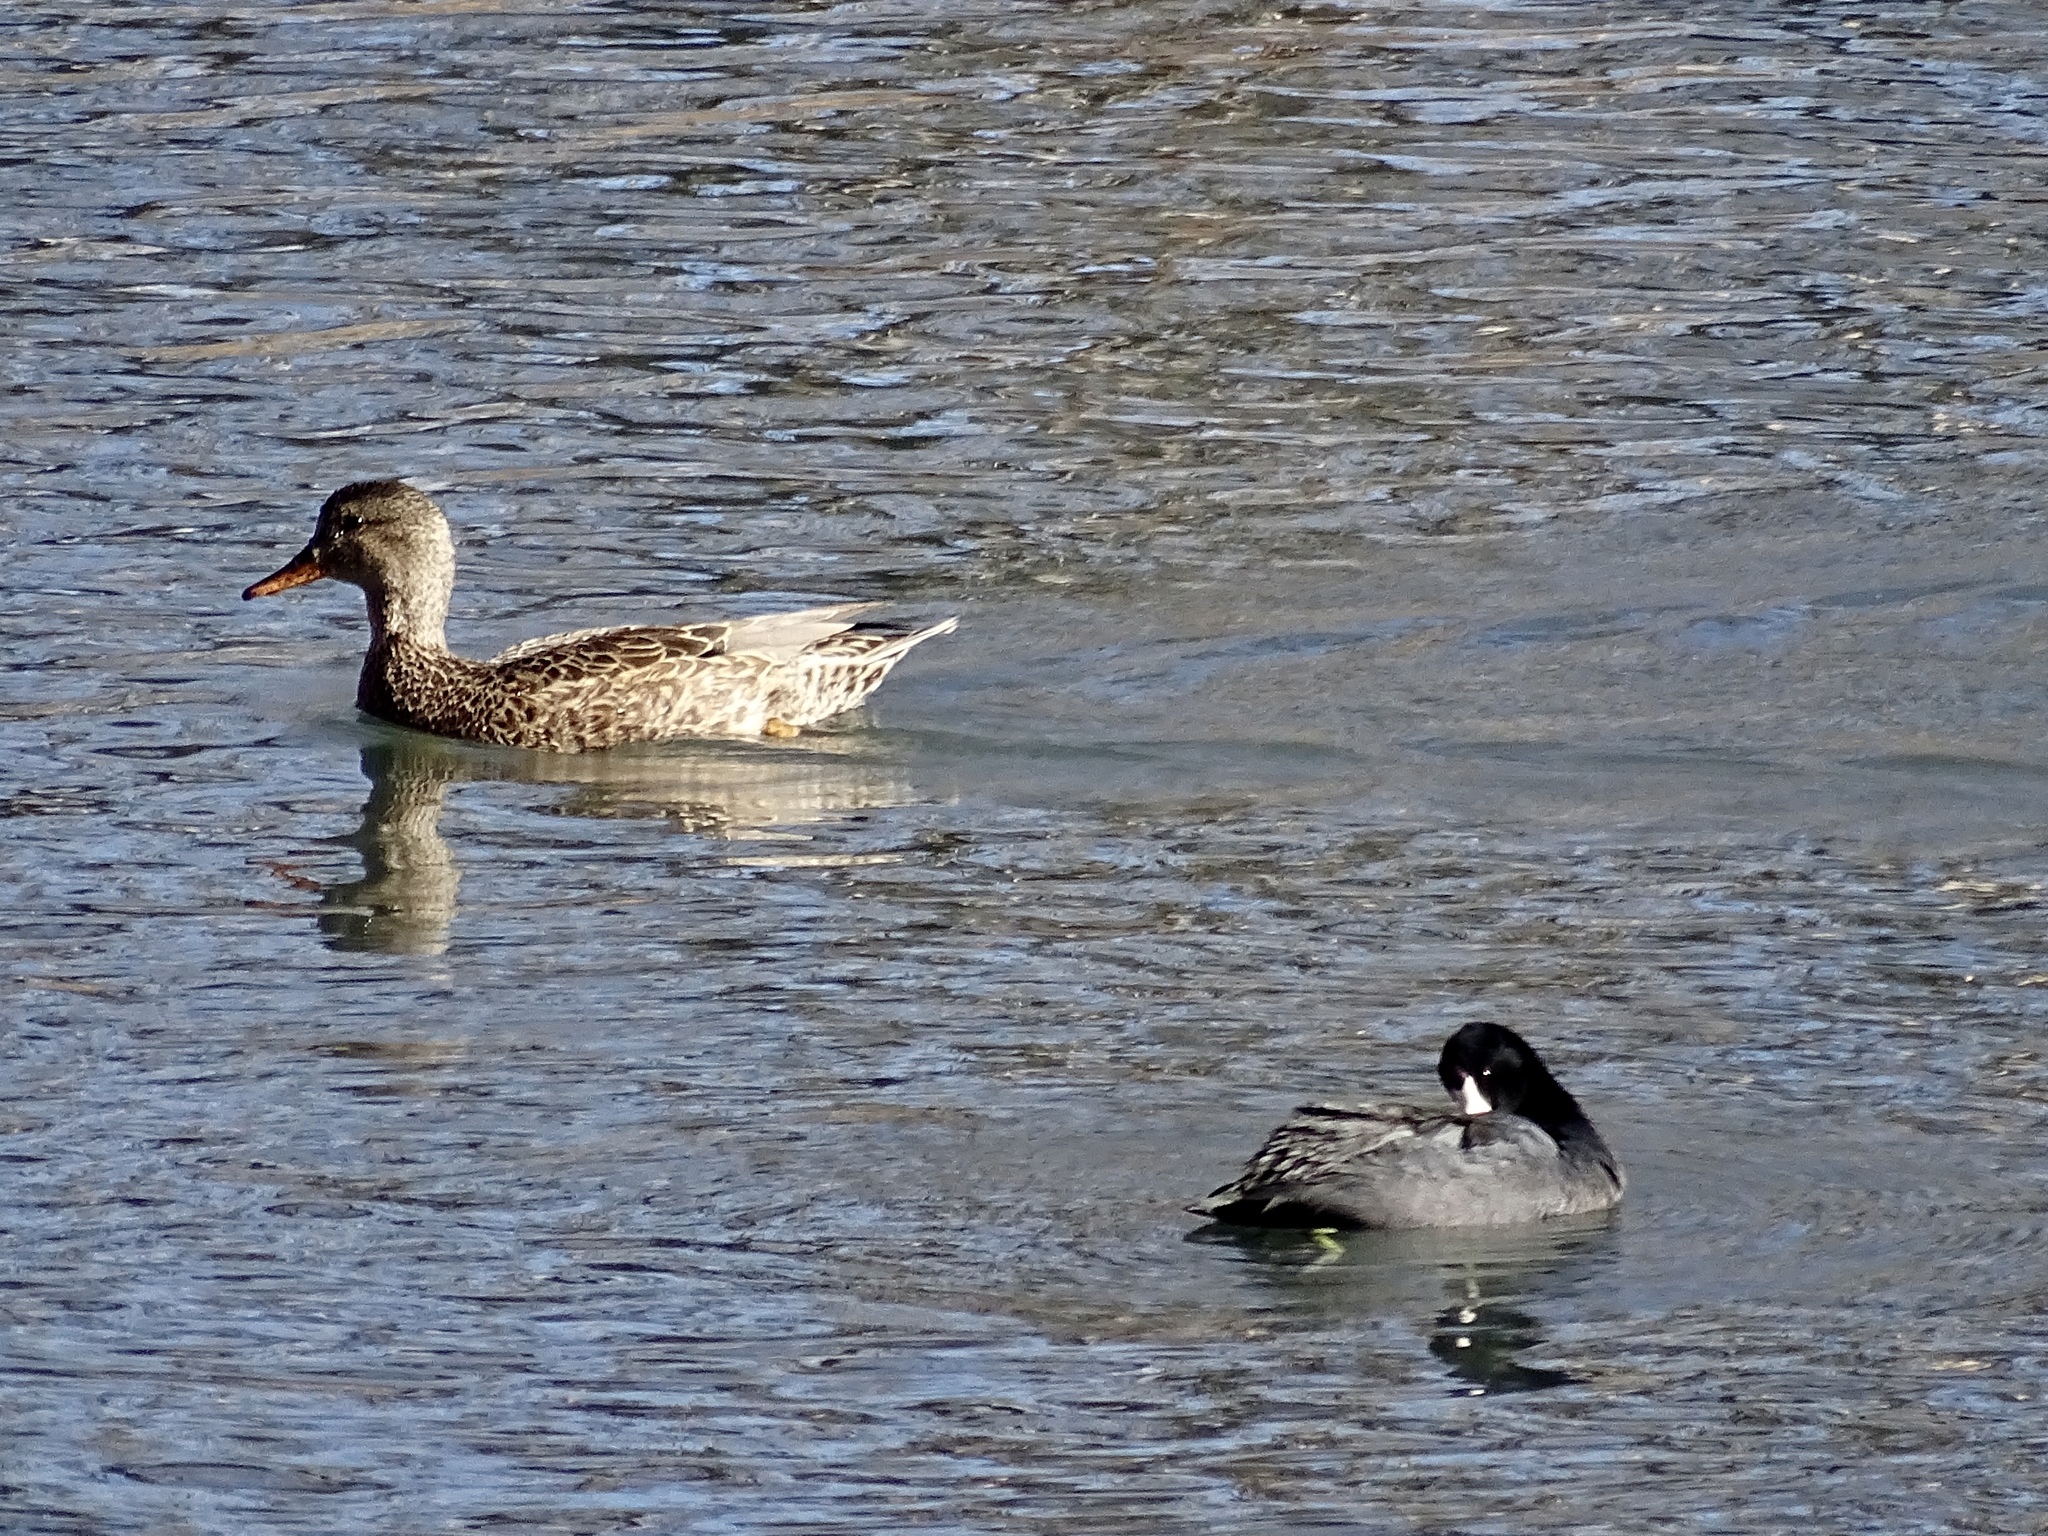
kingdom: Animalia
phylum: Chordata
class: Aves
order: Anseriformes
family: Anatidae
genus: Mareca
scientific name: Mareca strepera
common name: Gadwall
